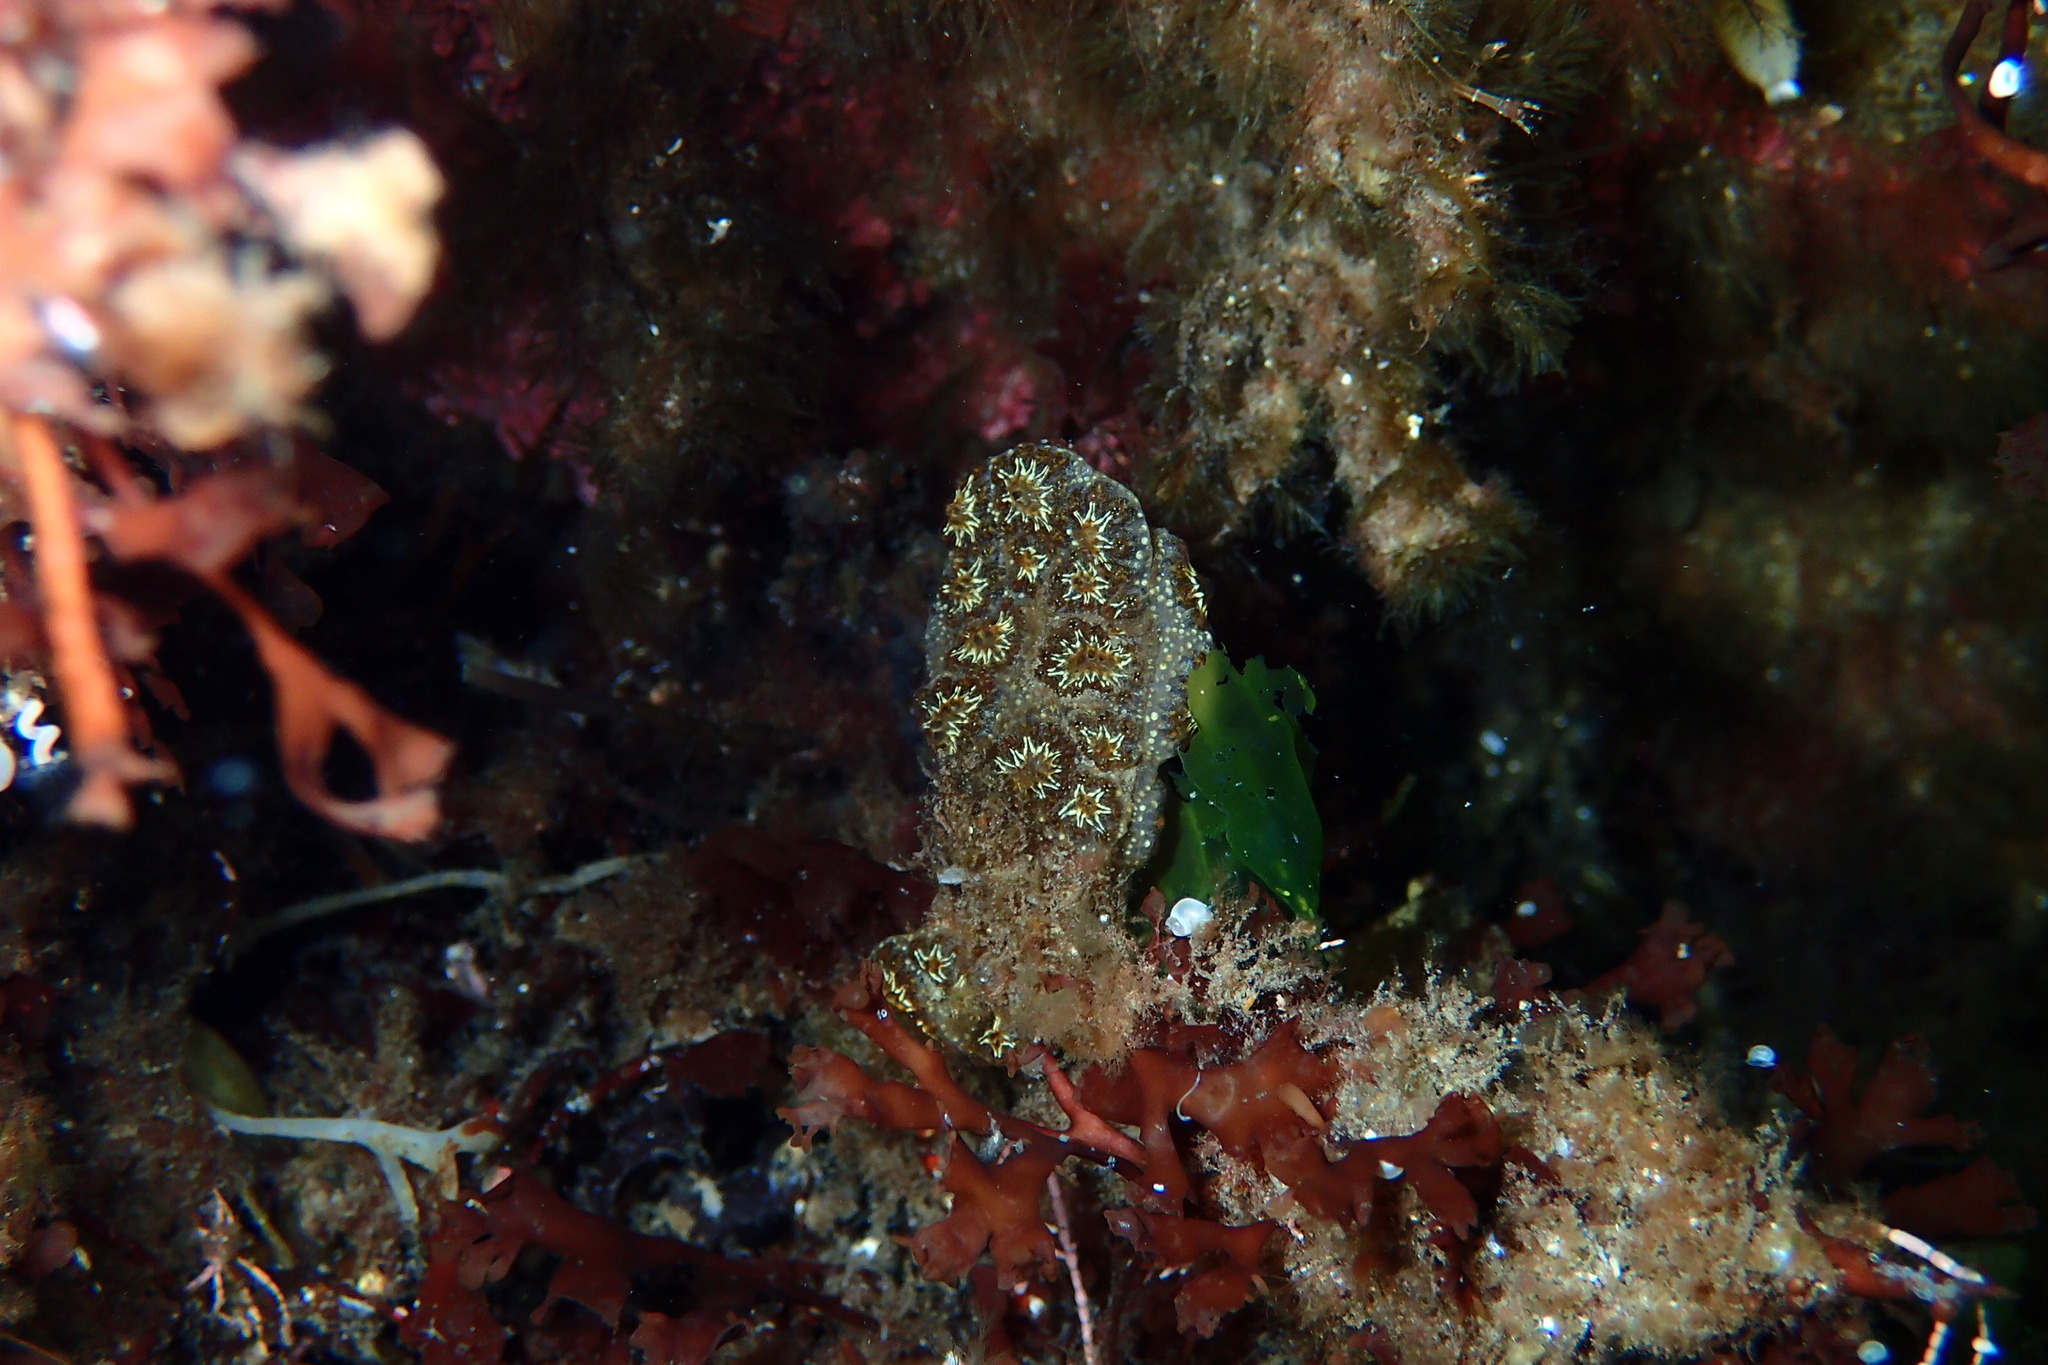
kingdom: Animalia
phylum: Chordata
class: Ascidiacea
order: Stolidobranchia
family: Styelidae
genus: Botryllus
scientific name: Botryllus schlosseri
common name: Golden star tunicate
